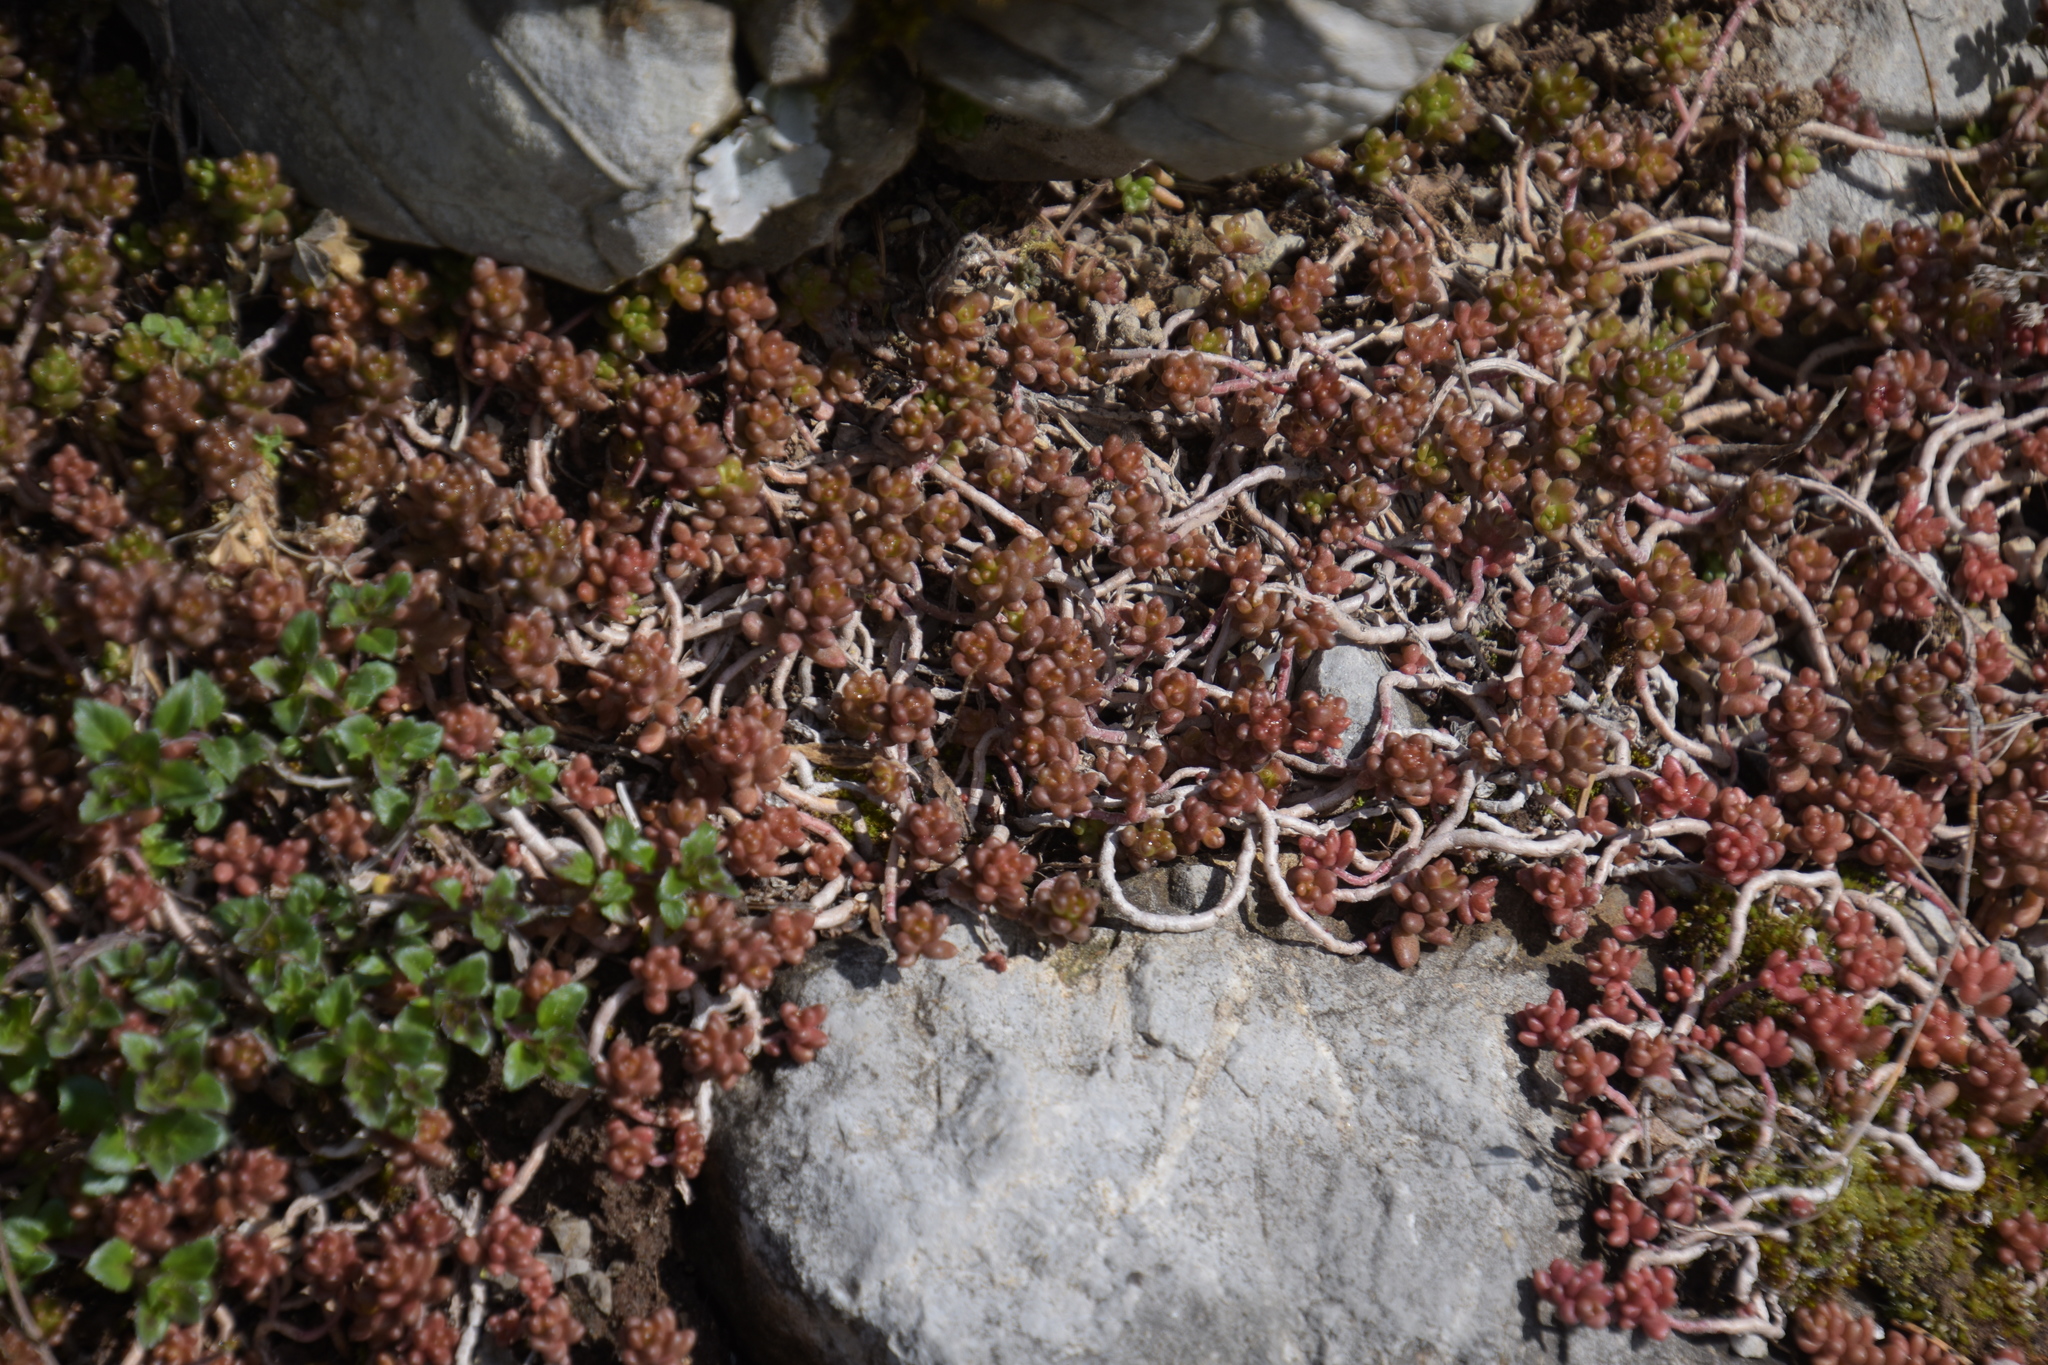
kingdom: Plantae
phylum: Tracheophyta
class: Magnoliopsida
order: Saxifragales
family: Crassulaceae
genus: Sedum
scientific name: Sedum album
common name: White stonecrop
